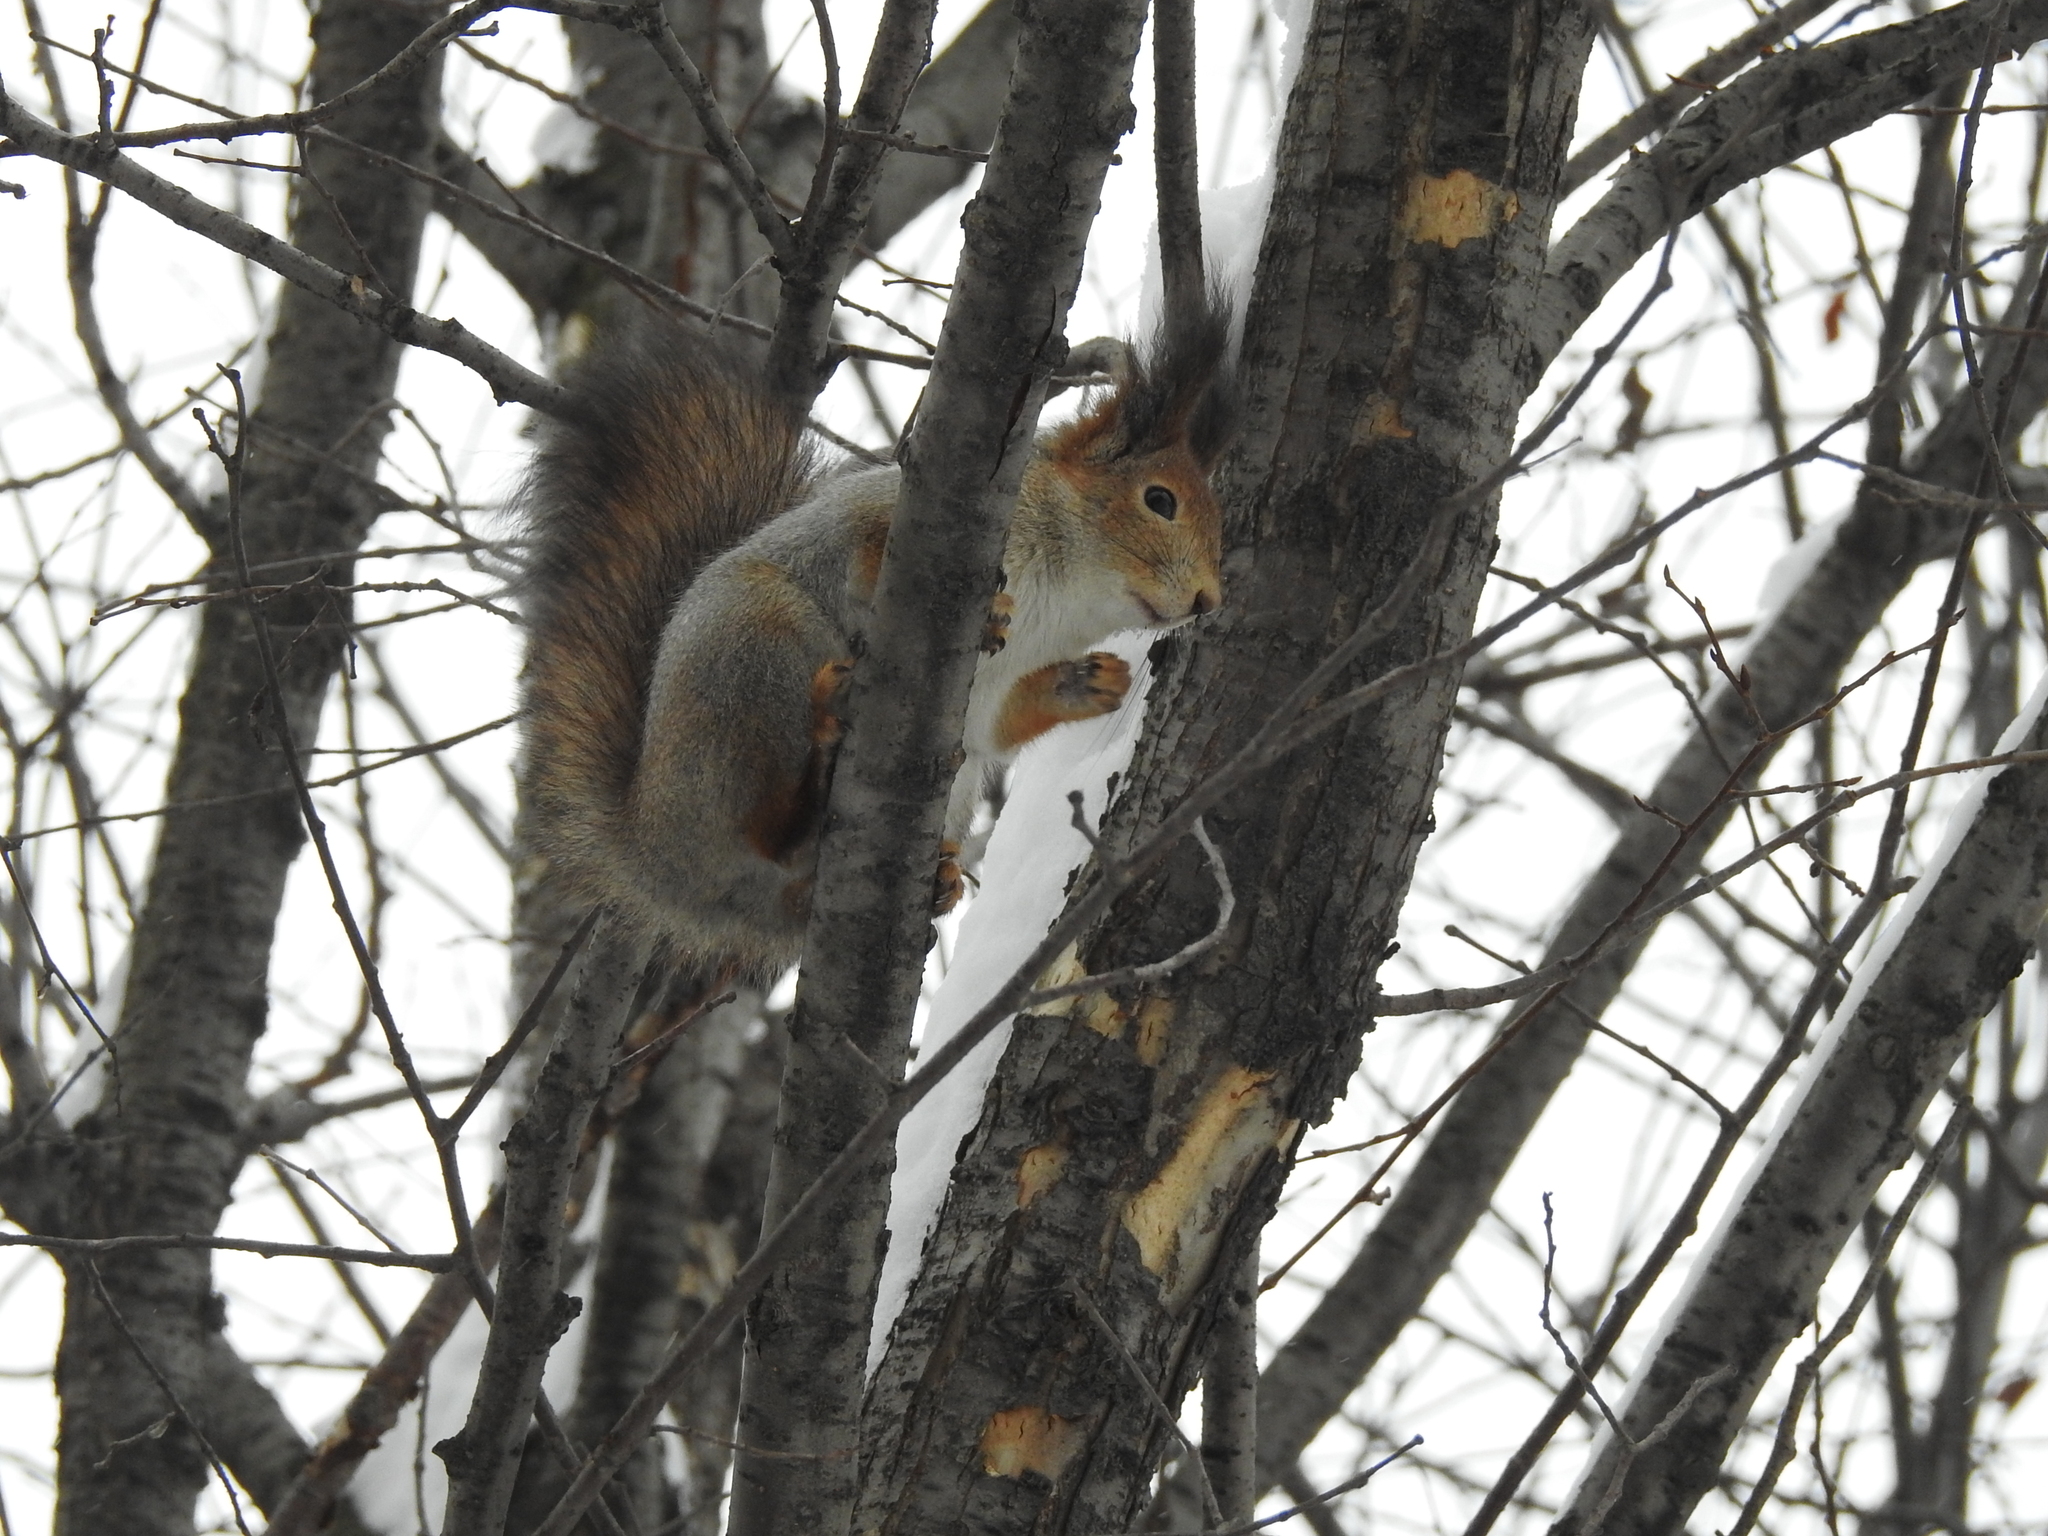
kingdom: Animalia
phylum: Chordata
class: Mammalia
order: Rodentia
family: Sciuridae
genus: Sciurus
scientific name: Sciurus vulgaris
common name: Eurasian red squirrel
